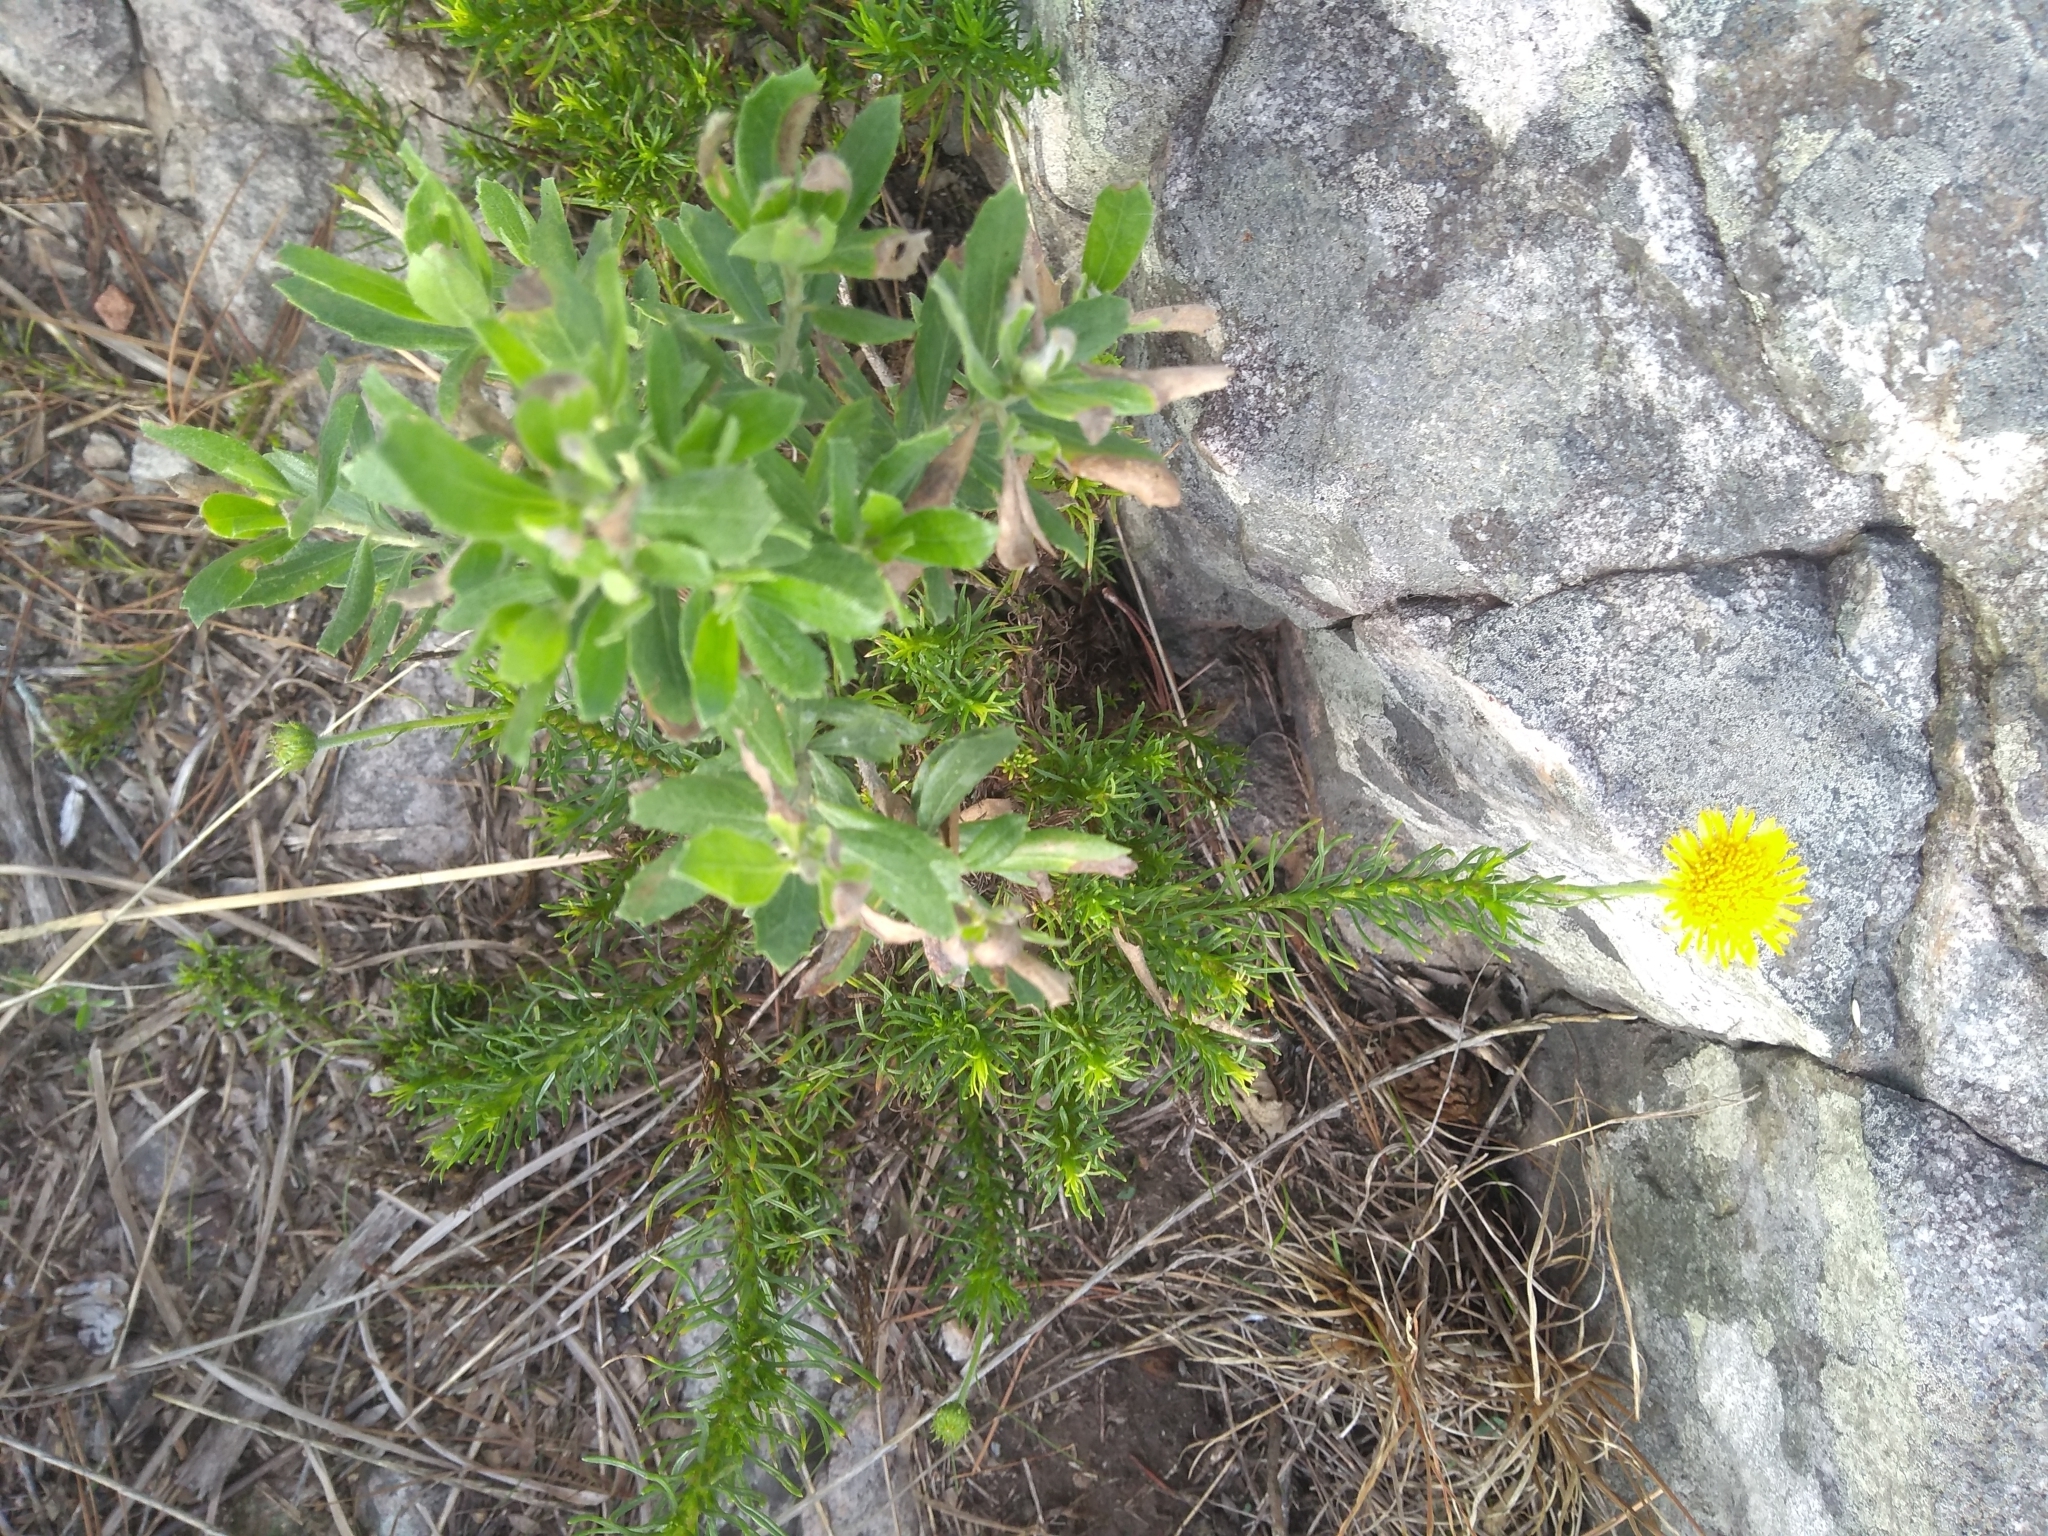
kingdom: Plantae
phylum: Tracheophyta
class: Magnoliopsida
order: Asterales
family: Asteraceae
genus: Neja
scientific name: Neja pinifolia
